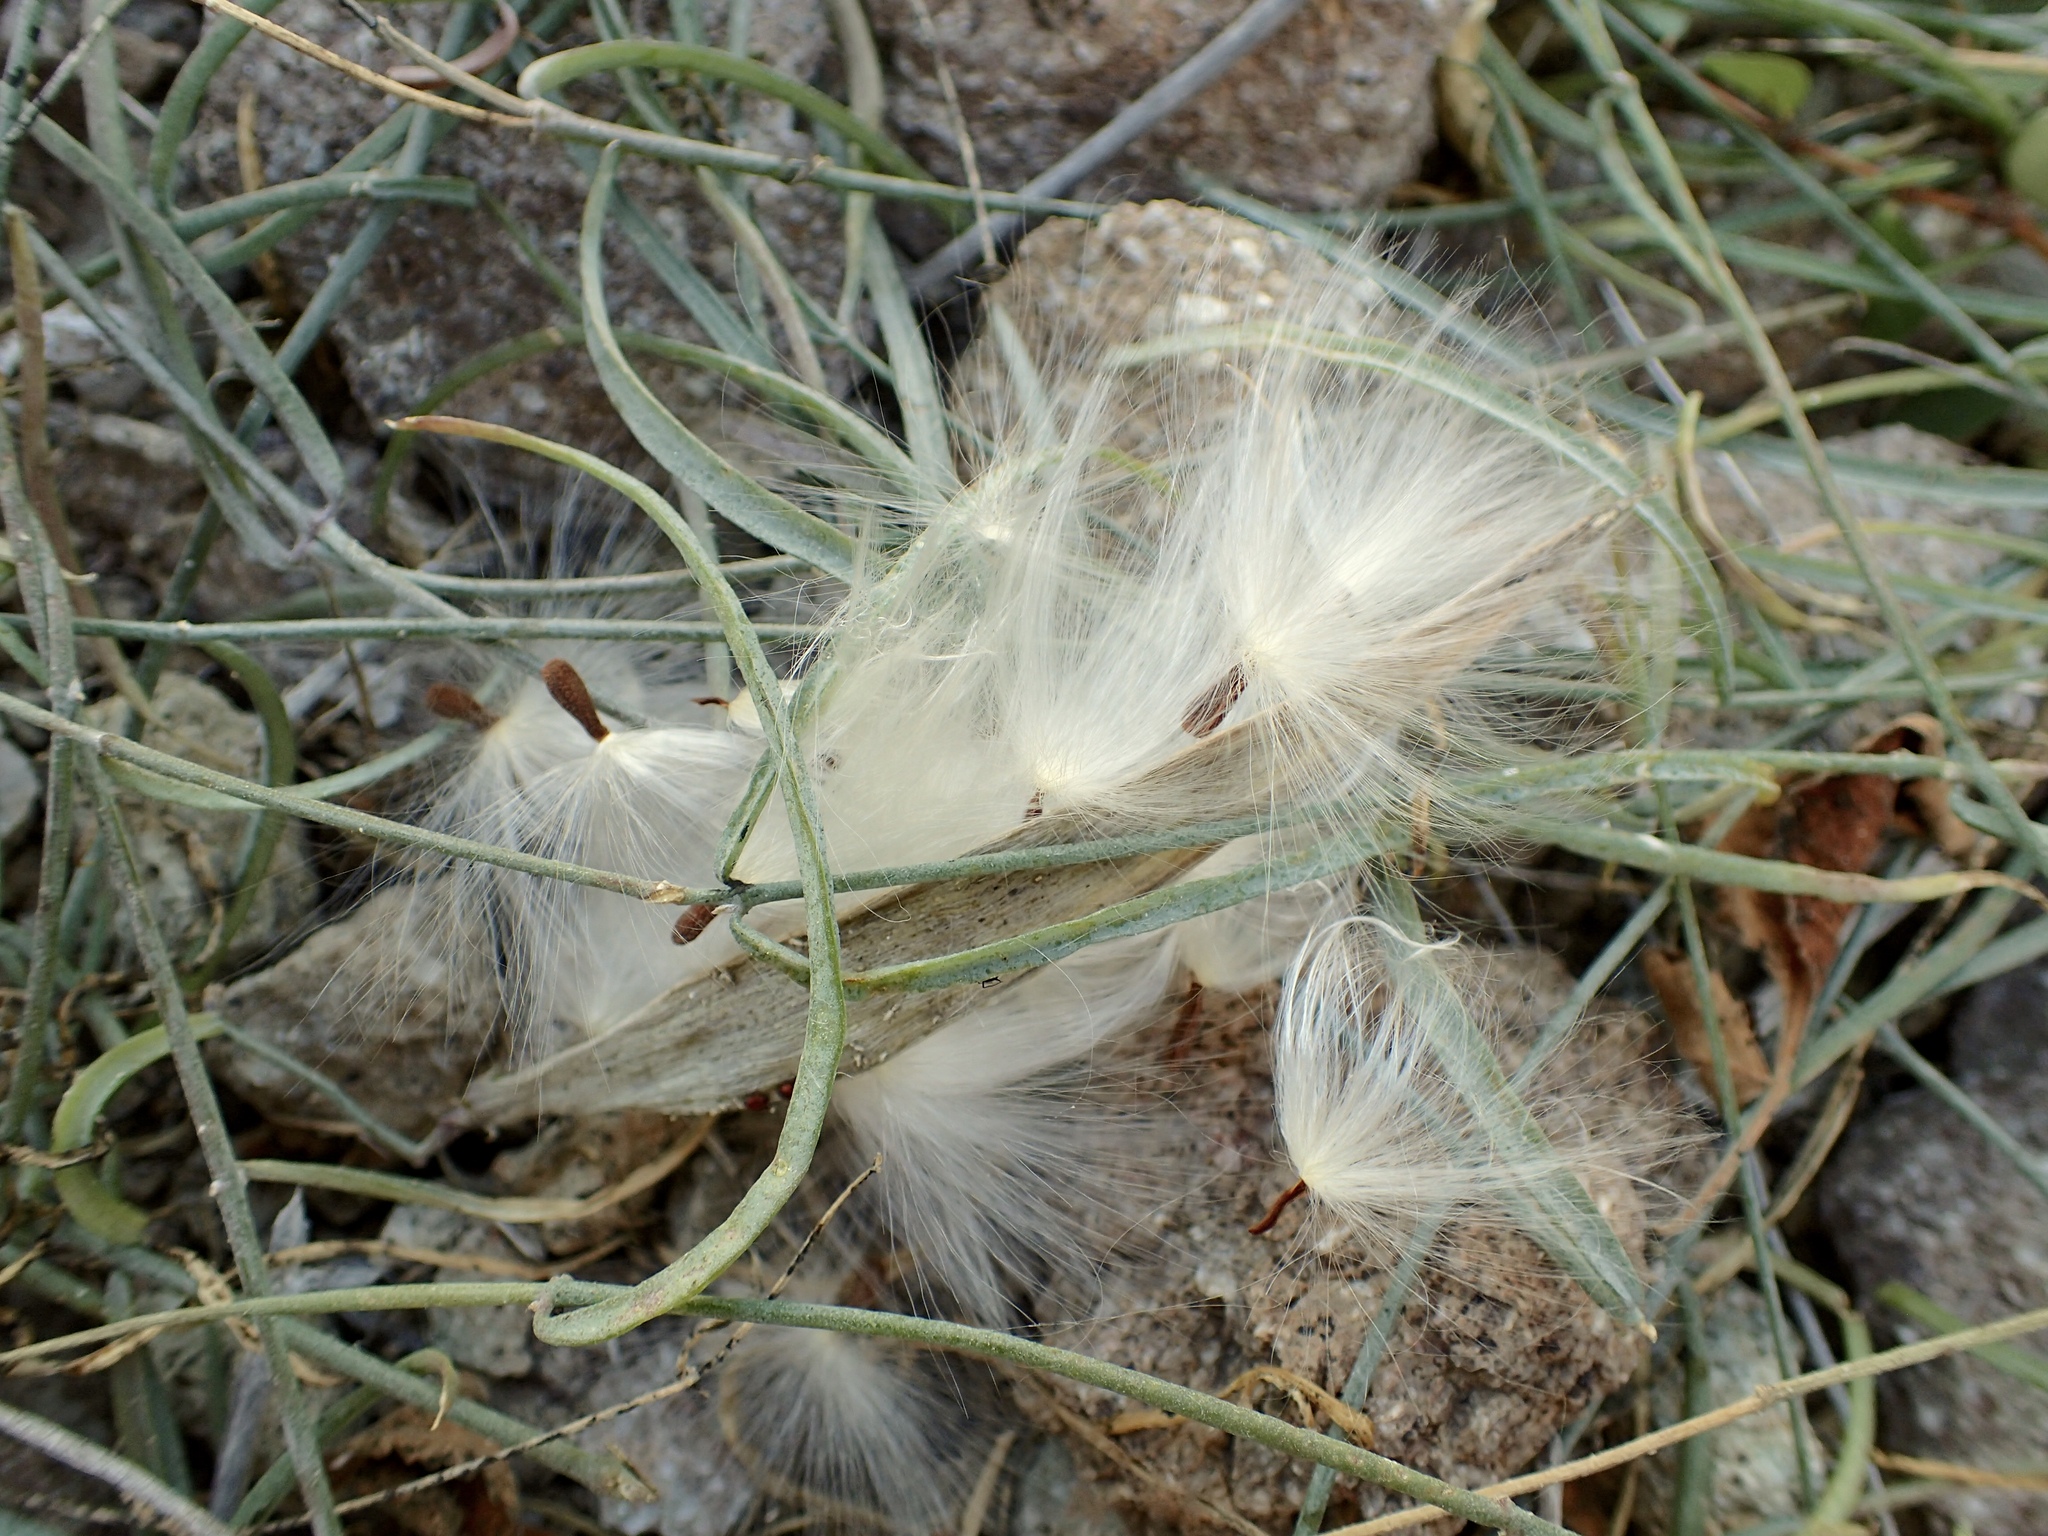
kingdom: Plantae
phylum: Tracheophyta
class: Magnoliopsida
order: Gentianales
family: Apocynaceae
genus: Pattalias
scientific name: Pattalias palmeri
